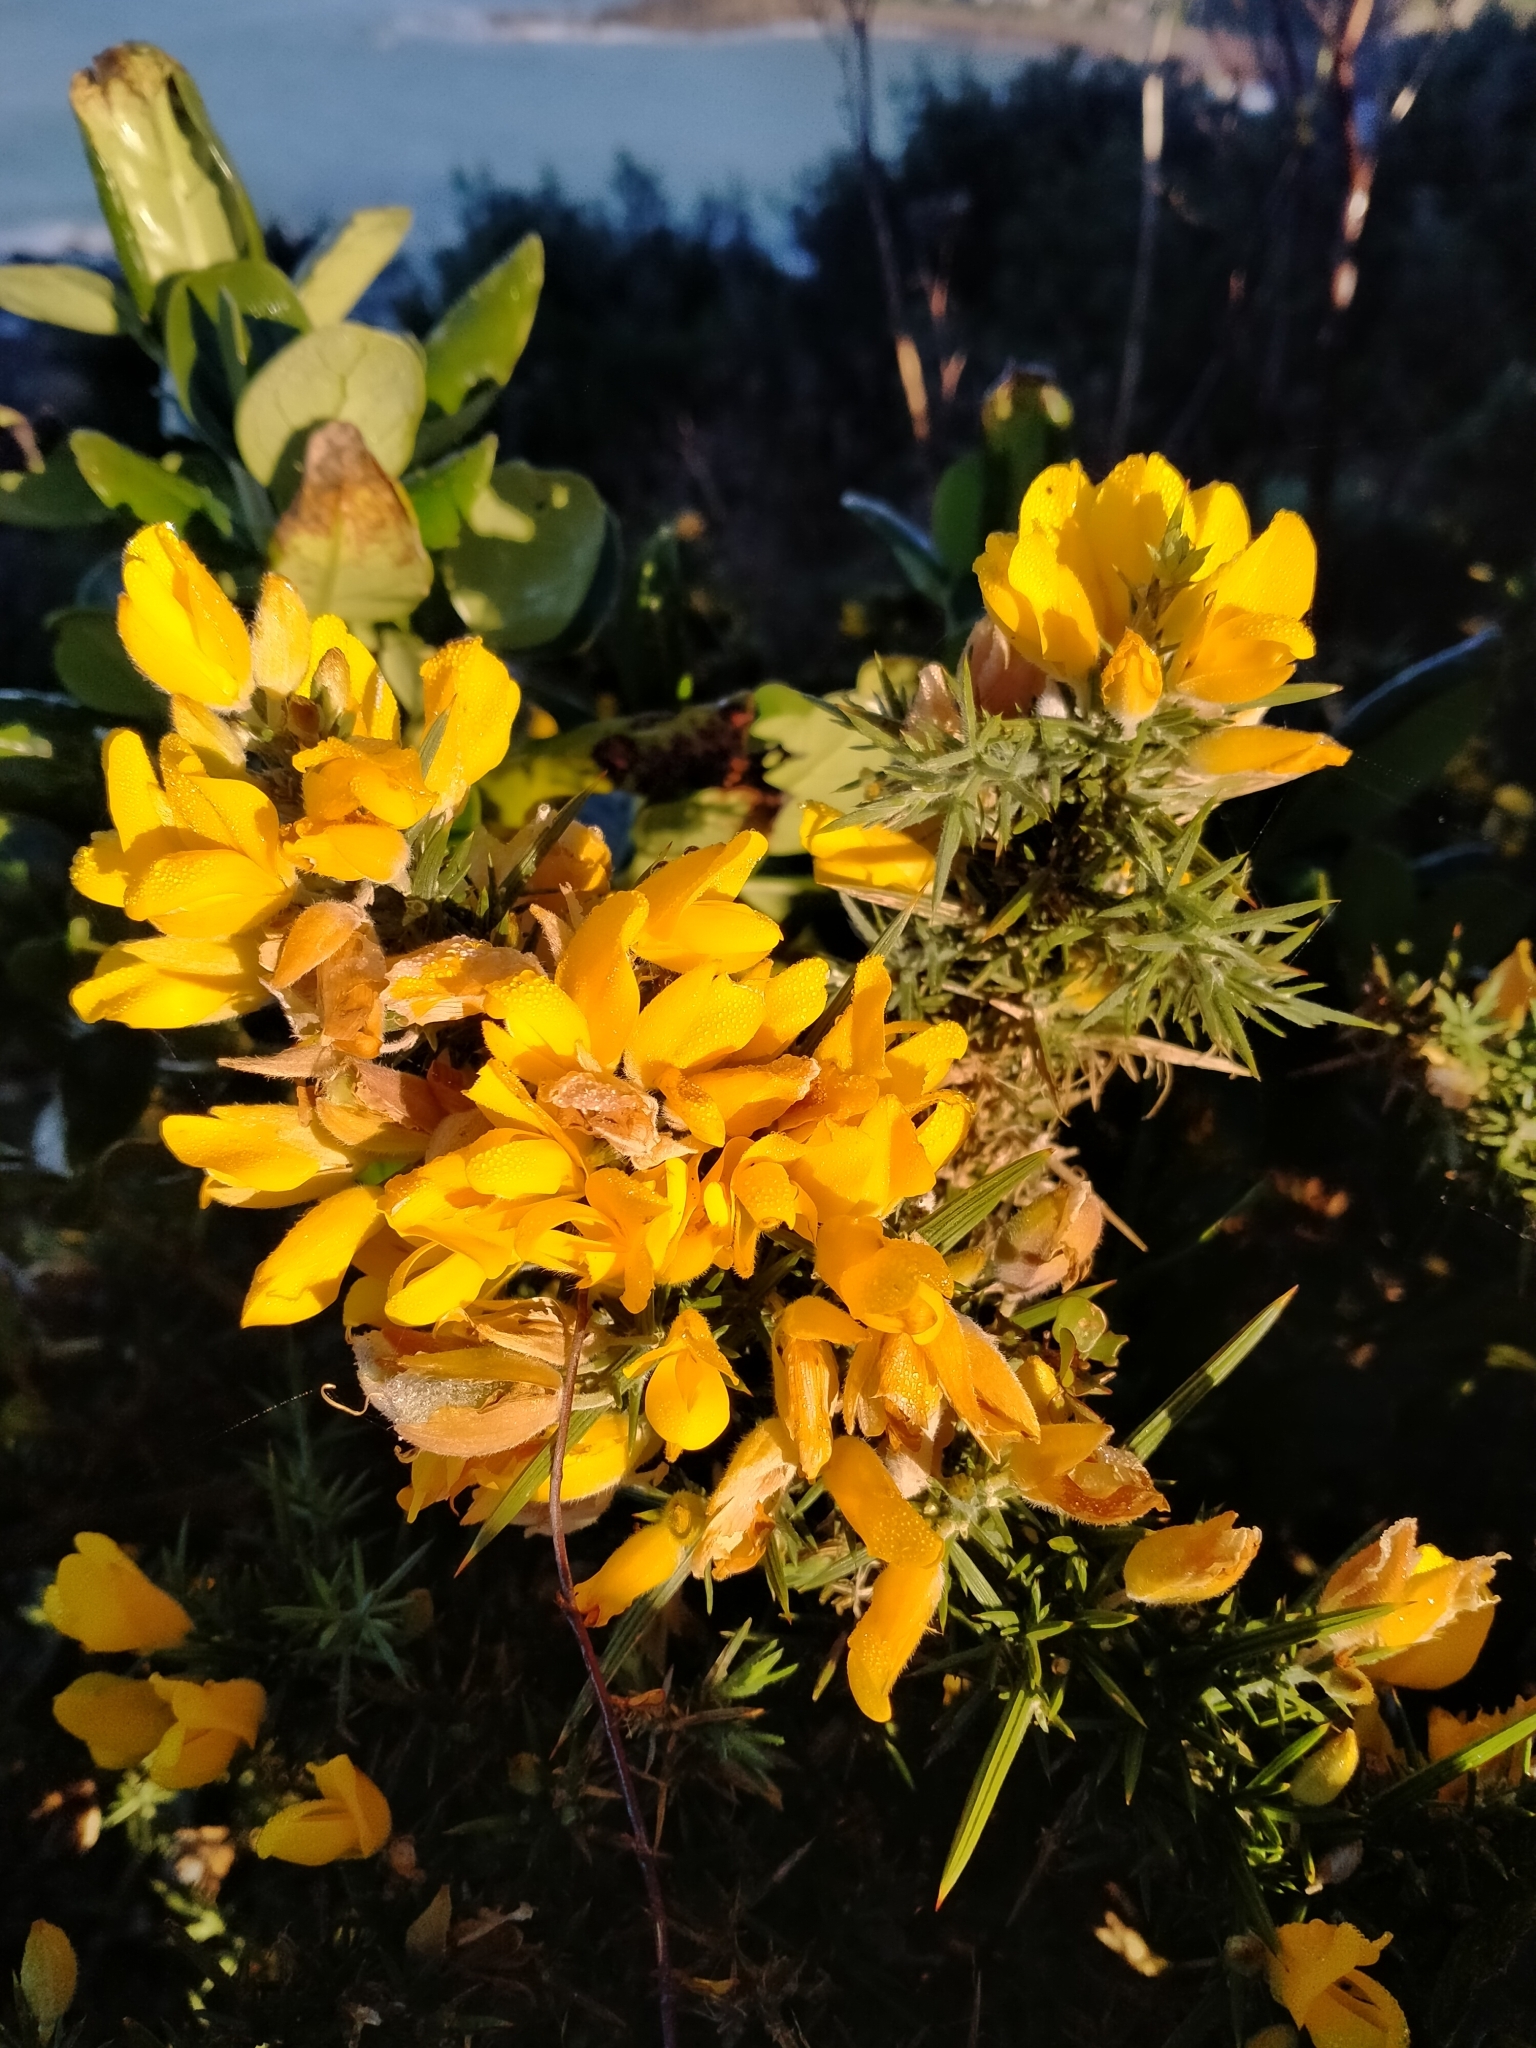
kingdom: Plantae
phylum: Tracheophyta
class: Magnoliopsida
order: Fabales
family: Fabaceae
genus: Ulex
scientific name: Ulex europaeus
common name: Common gorse
